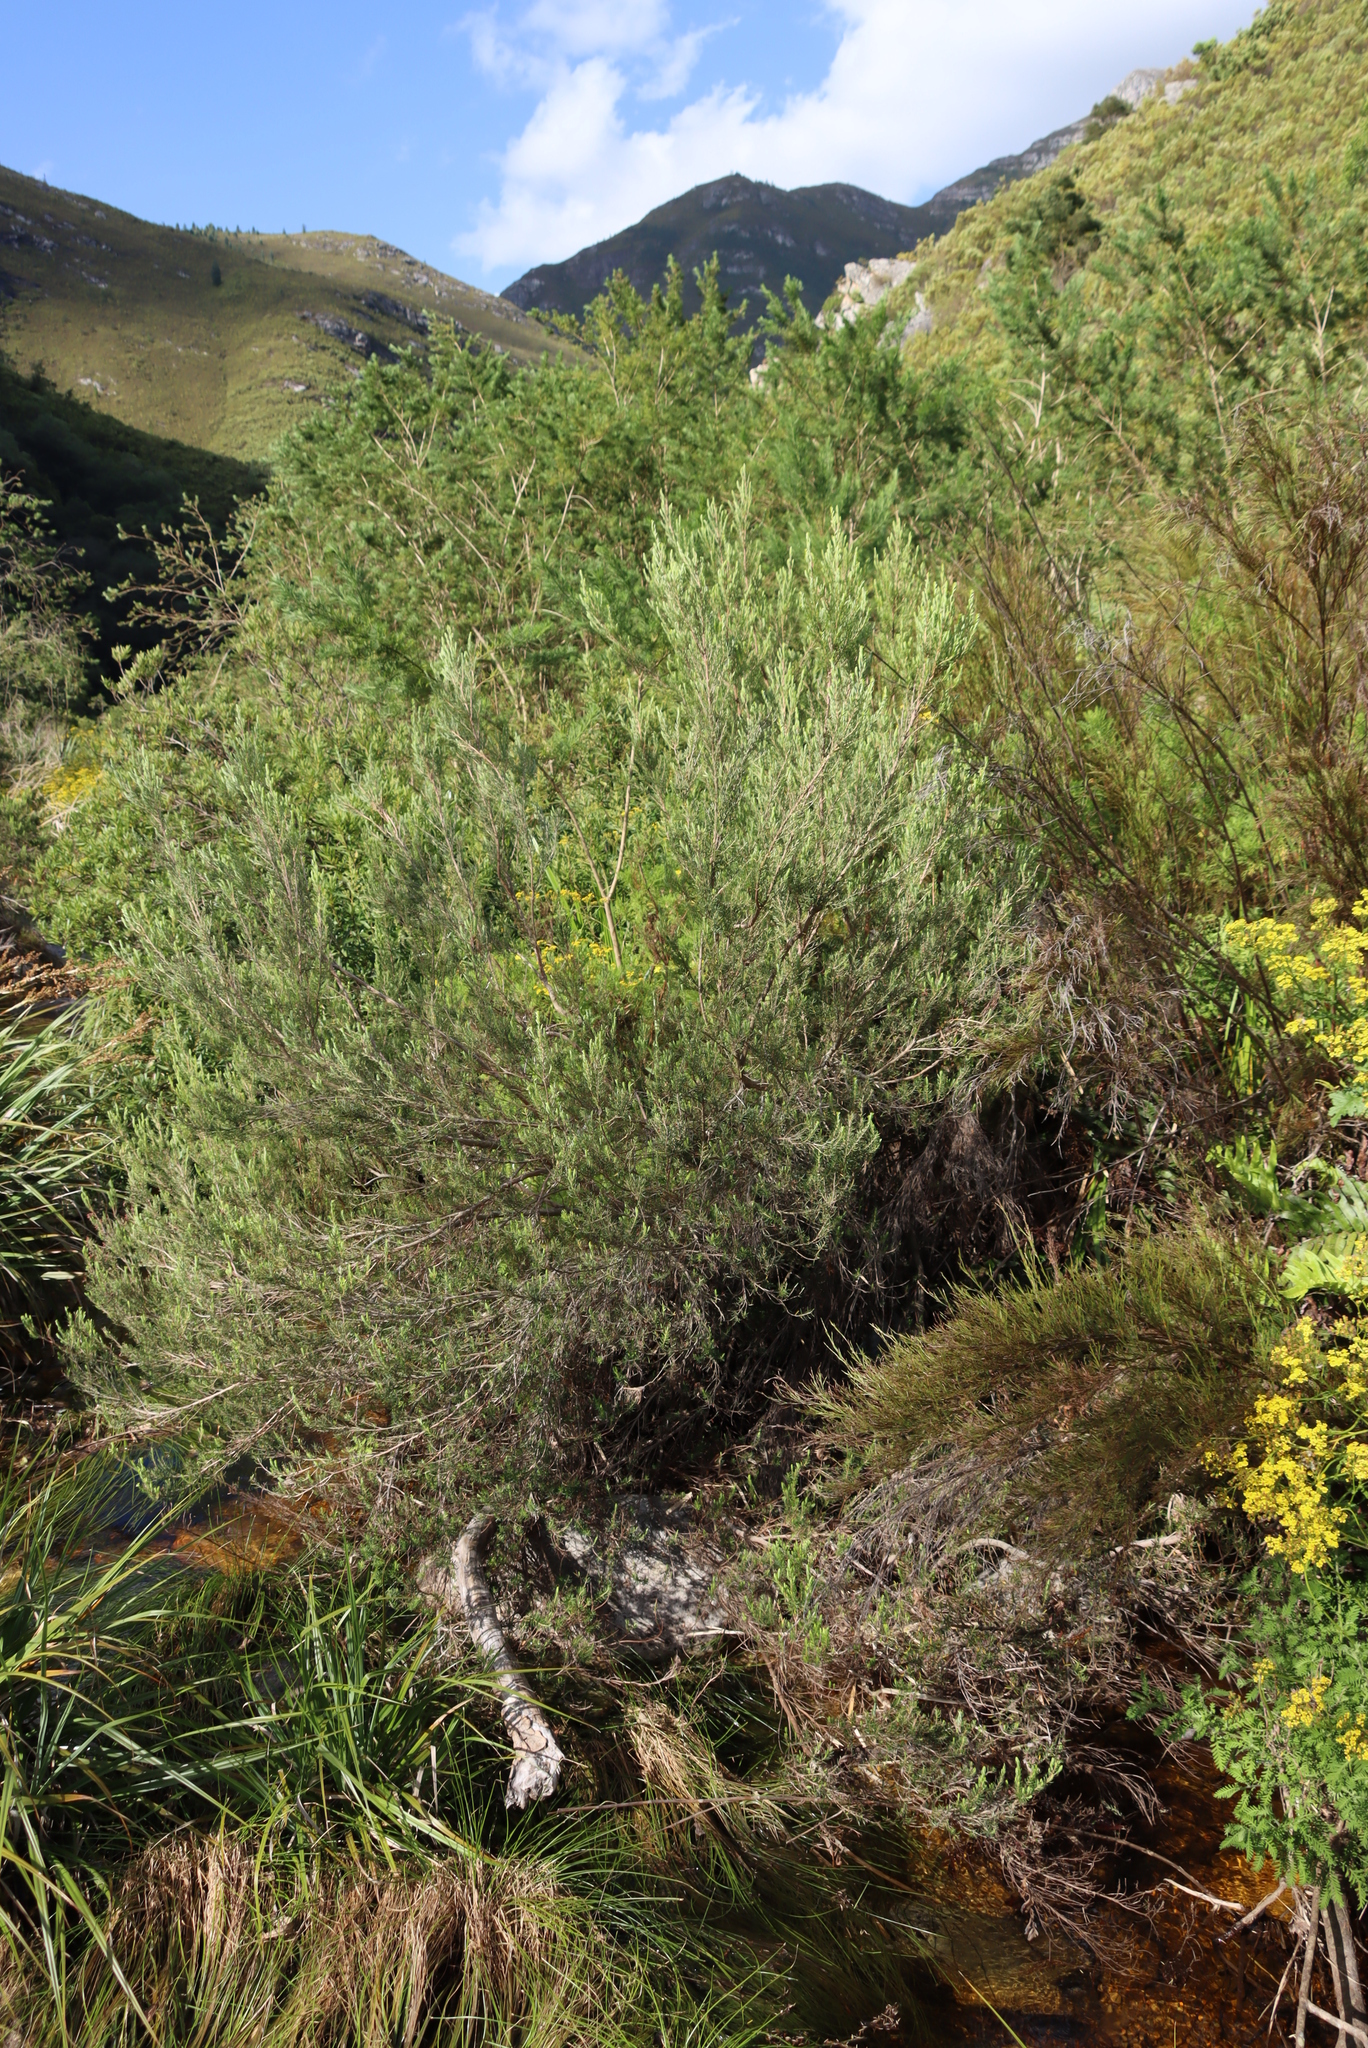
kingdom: Plantae
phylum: Tracheophyta
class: Magnoliopsida
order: Ericales
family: Ericaceae
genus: Erica
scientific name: Erica caffra
